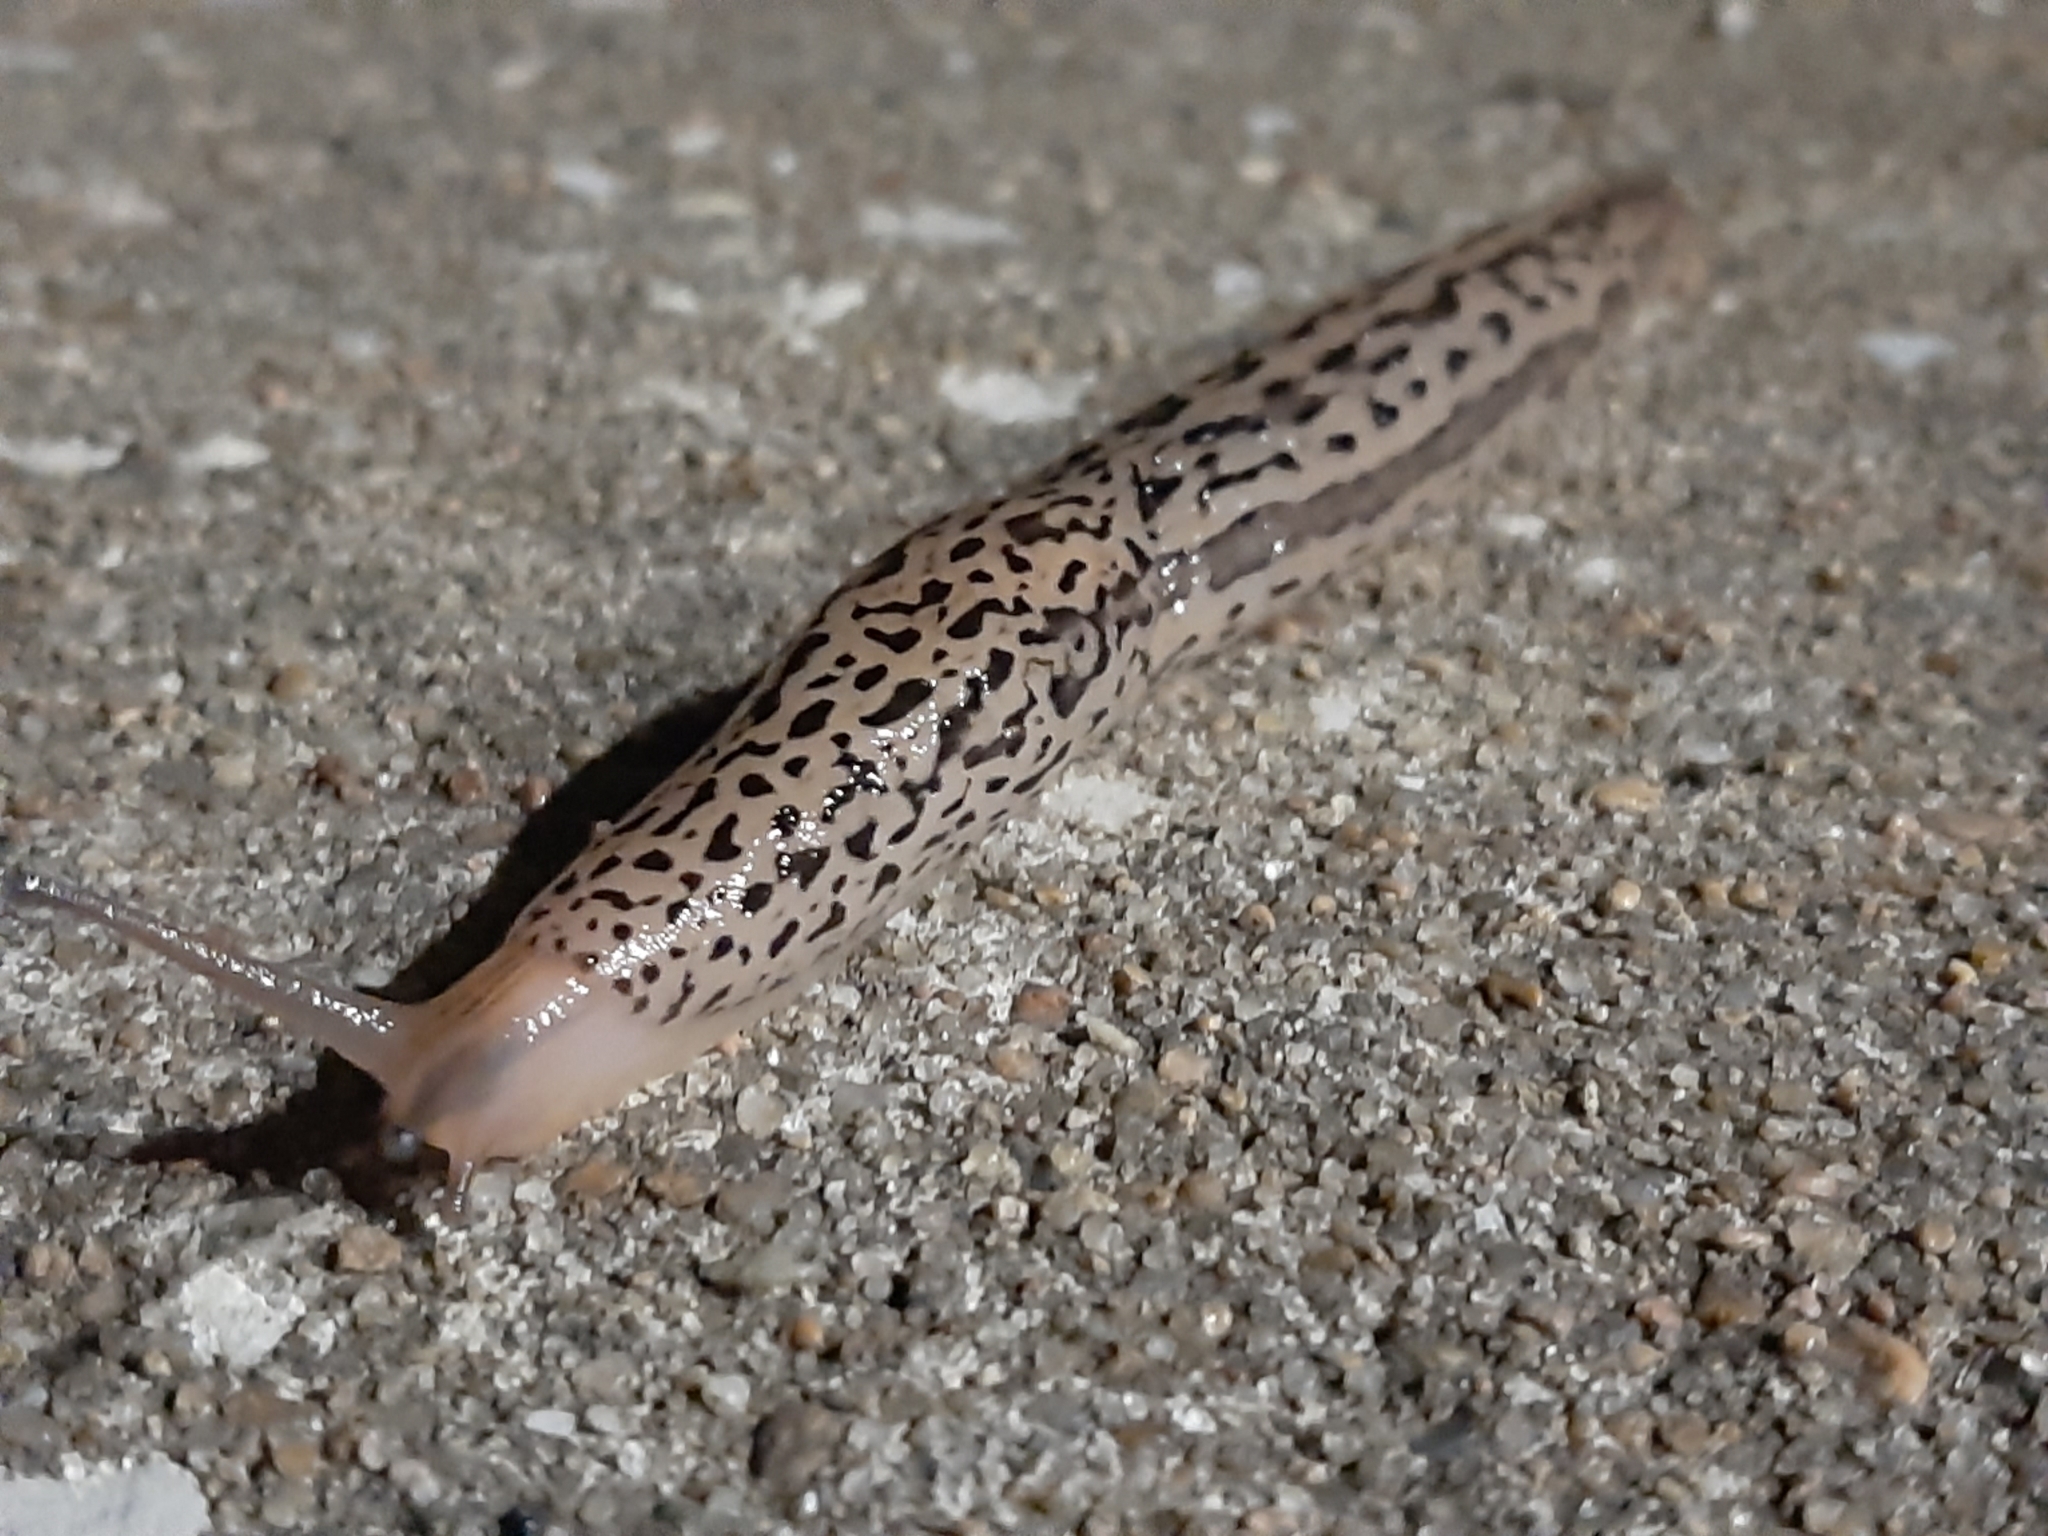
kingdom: Animalia
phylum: Mollusca
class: Gastropoda
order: Stylommatophora
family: Limacidae
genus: Limax
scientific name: Limax maximus
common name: Great grey slug
